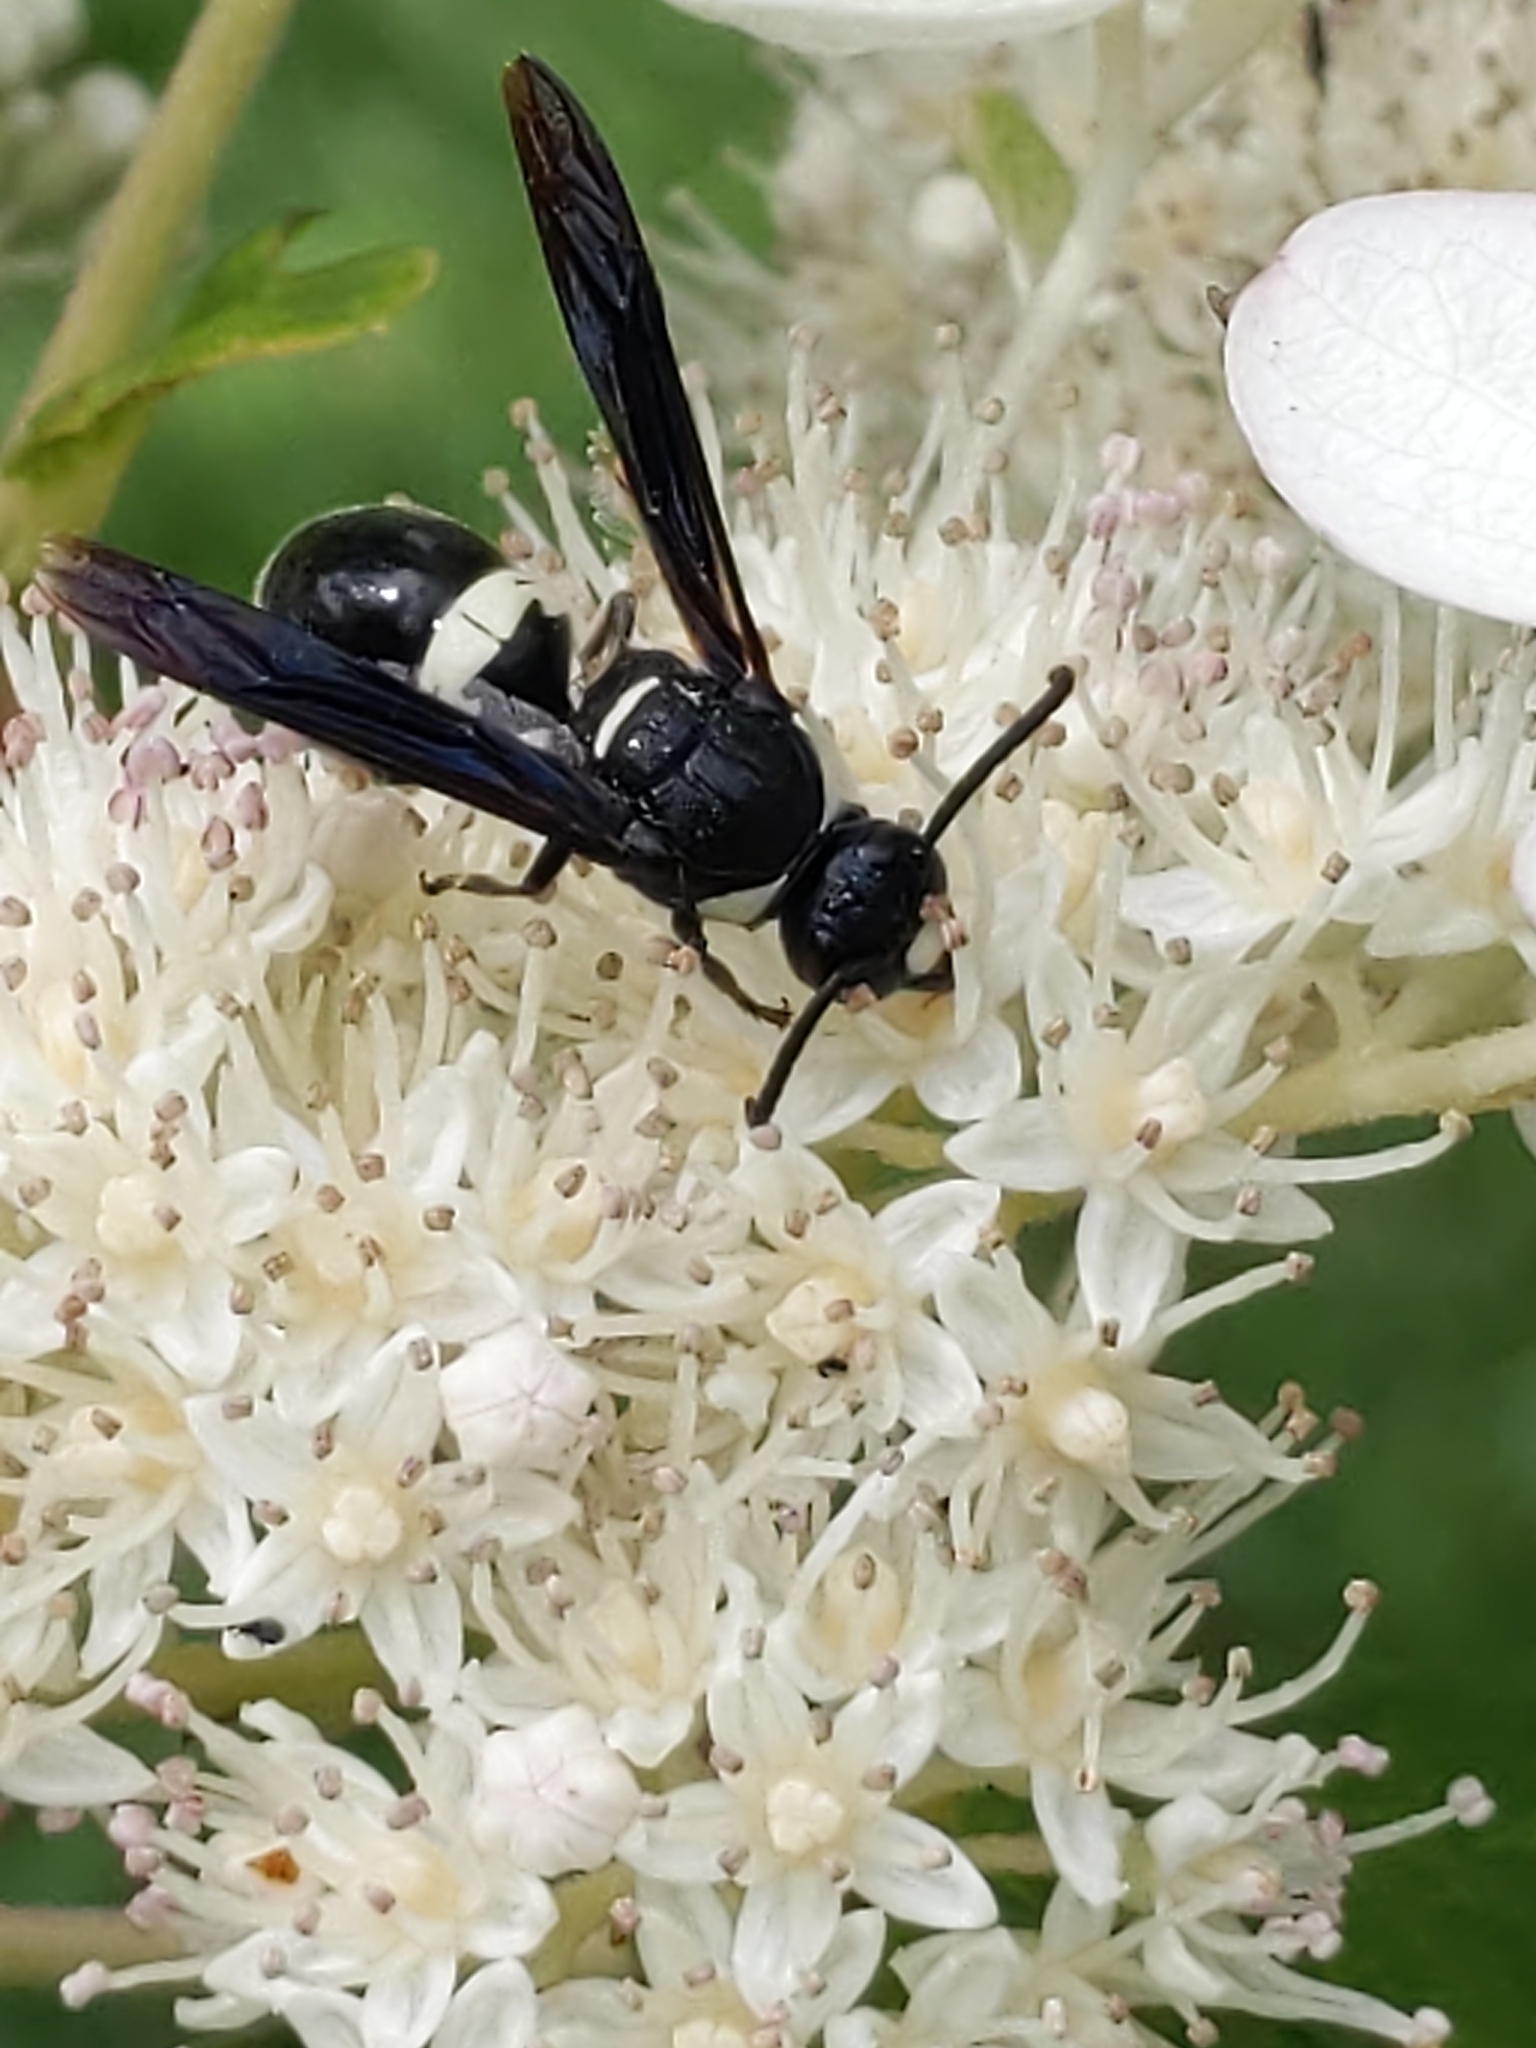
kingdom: Animalia
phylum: Arthropoda
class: Insecta
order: Hymenoptera
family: Eumenidae
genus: Monobia
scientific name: Monobia quadridens
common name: Four-toothed mason wasp
